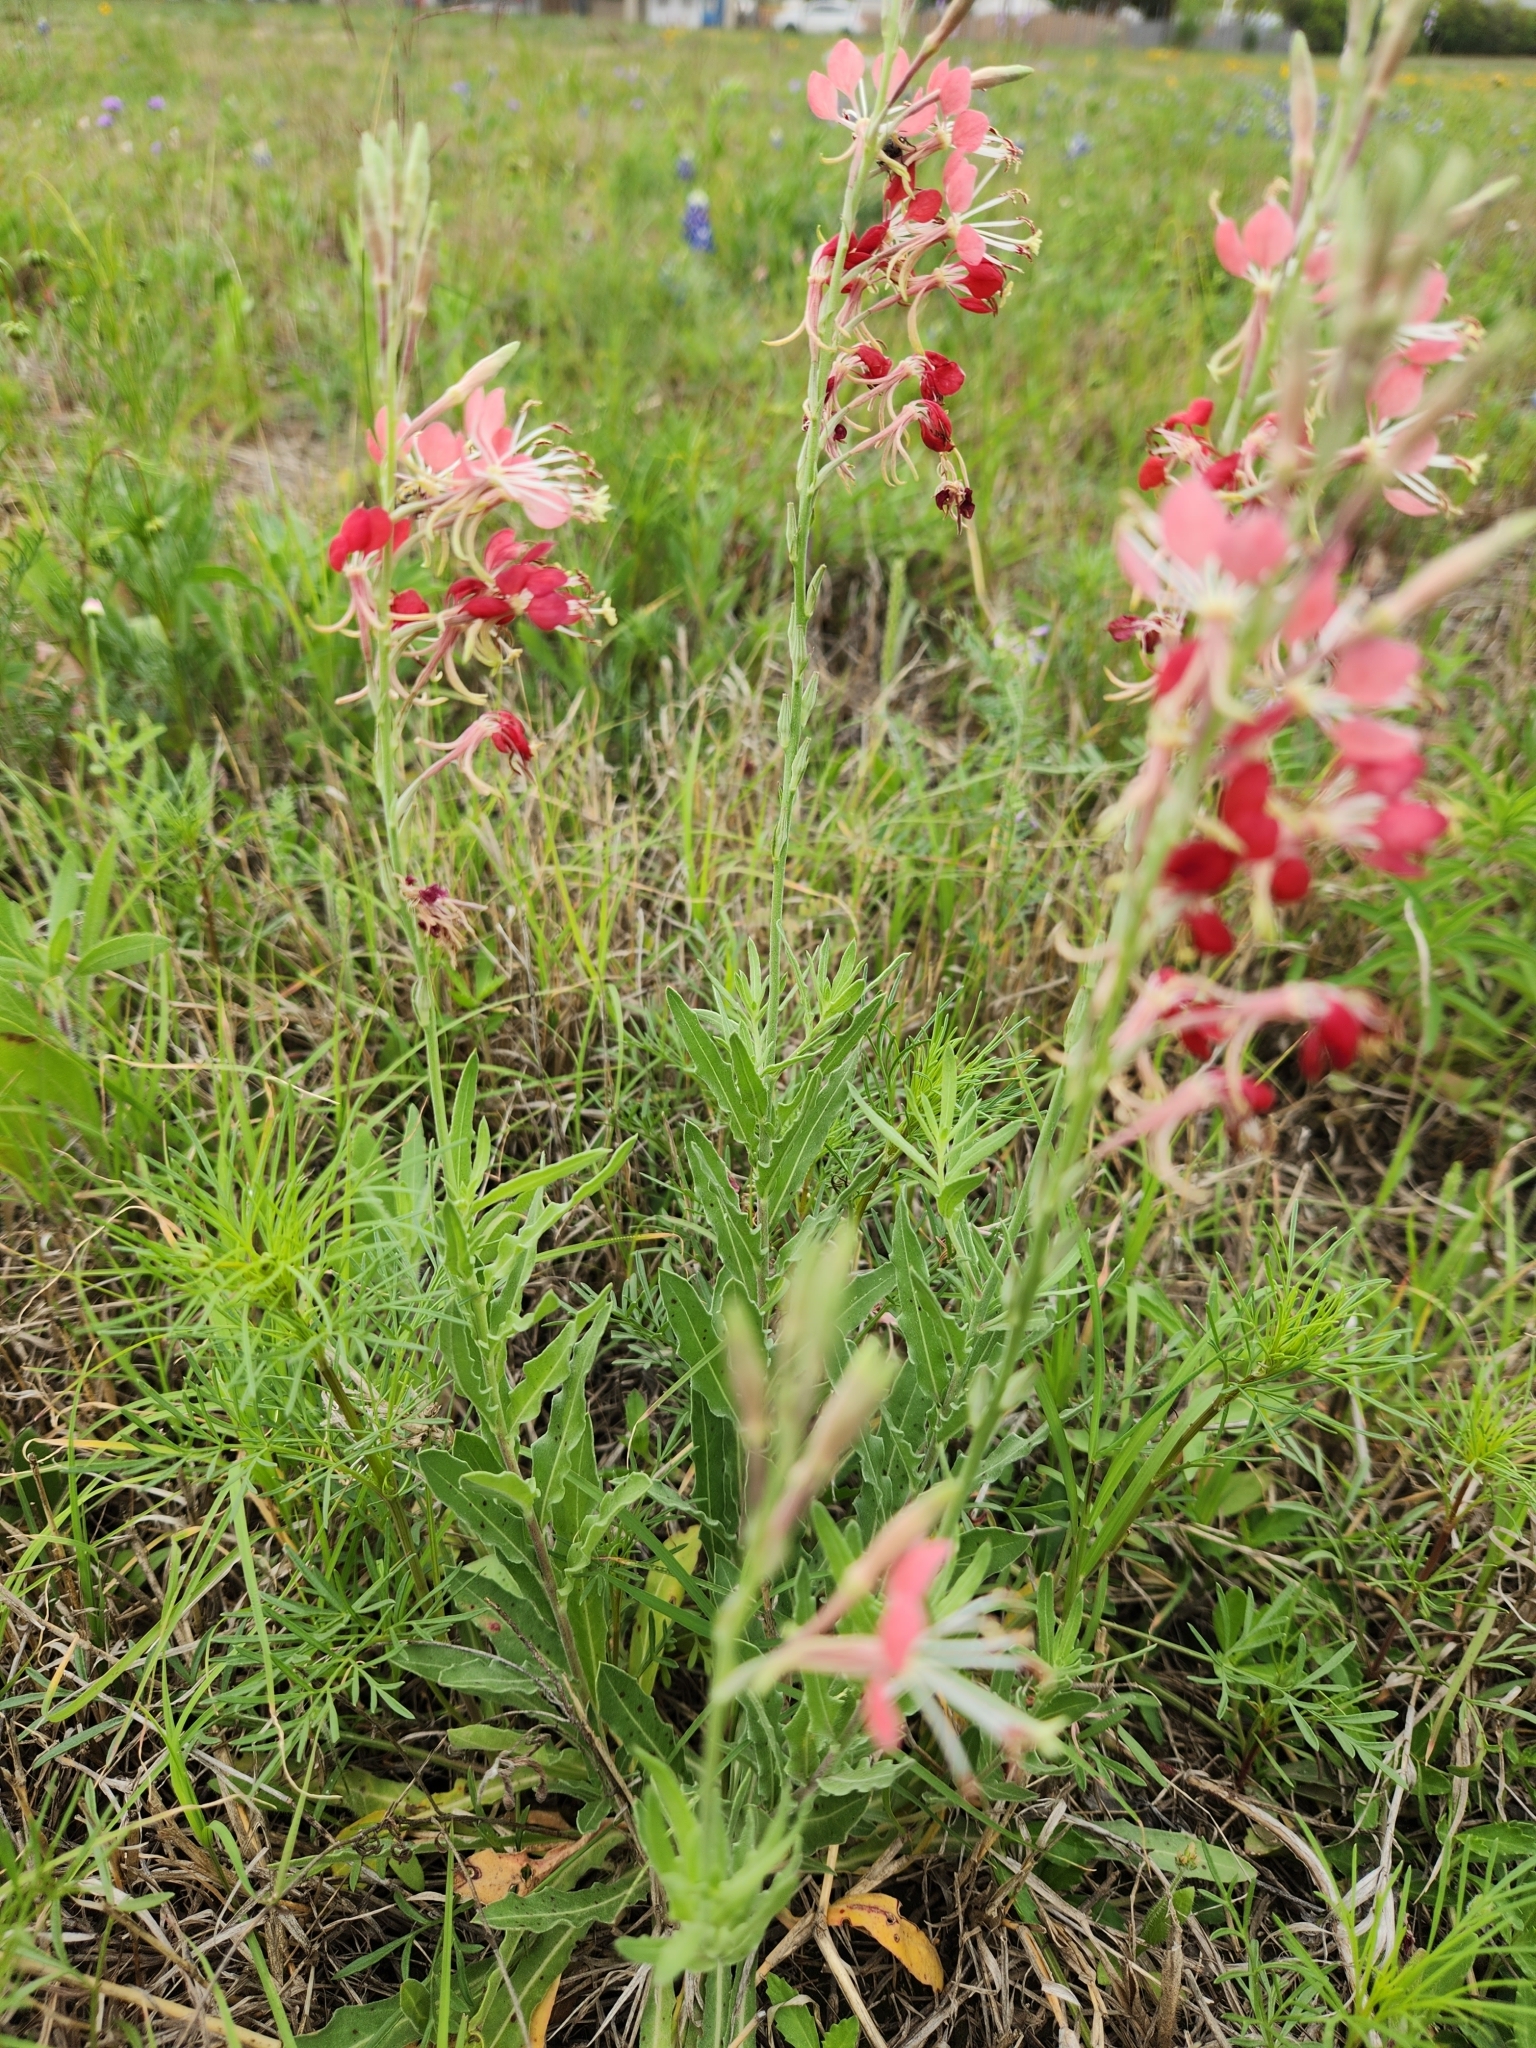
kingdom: Plantae
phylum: Tracheophyta
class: Magnoliopsida
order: Myrtales
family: Onagraceae
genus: Oenothera
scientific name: Oenothera suffrutescens
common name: Scarlet beeblossom
